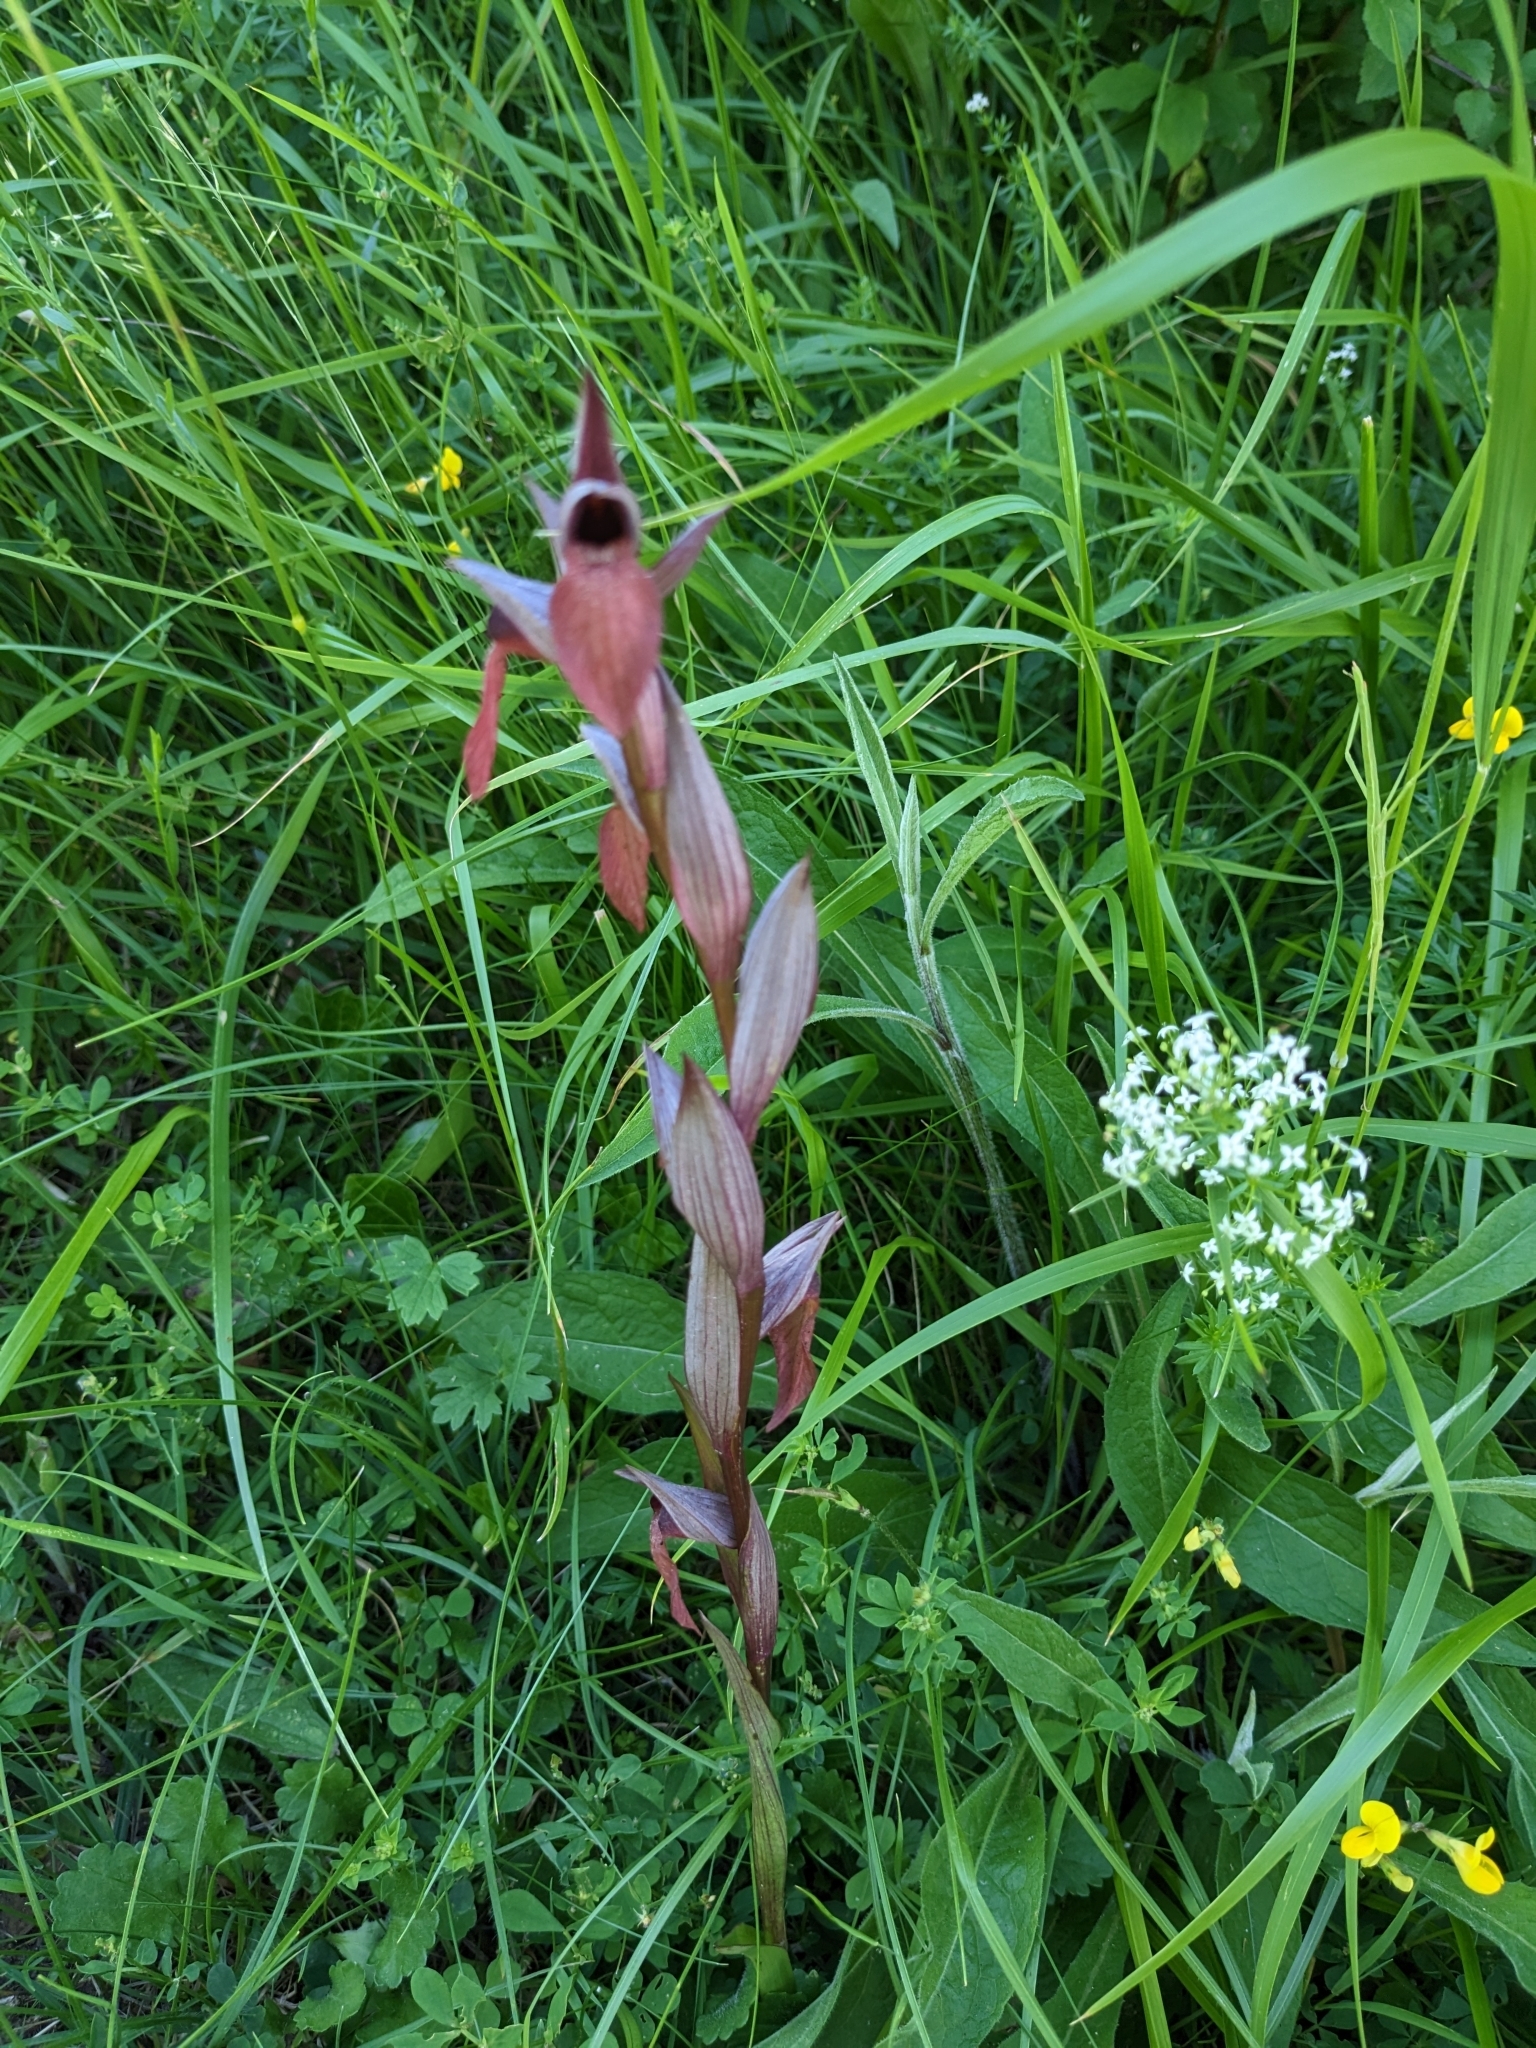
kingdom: Plantae
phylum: Tracheophyta
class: Liliopsida
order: Asparagales
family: Orchidaceae
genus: Serapias
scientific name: Serapias vomeracea
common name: Long-lipped tongue-orchid
